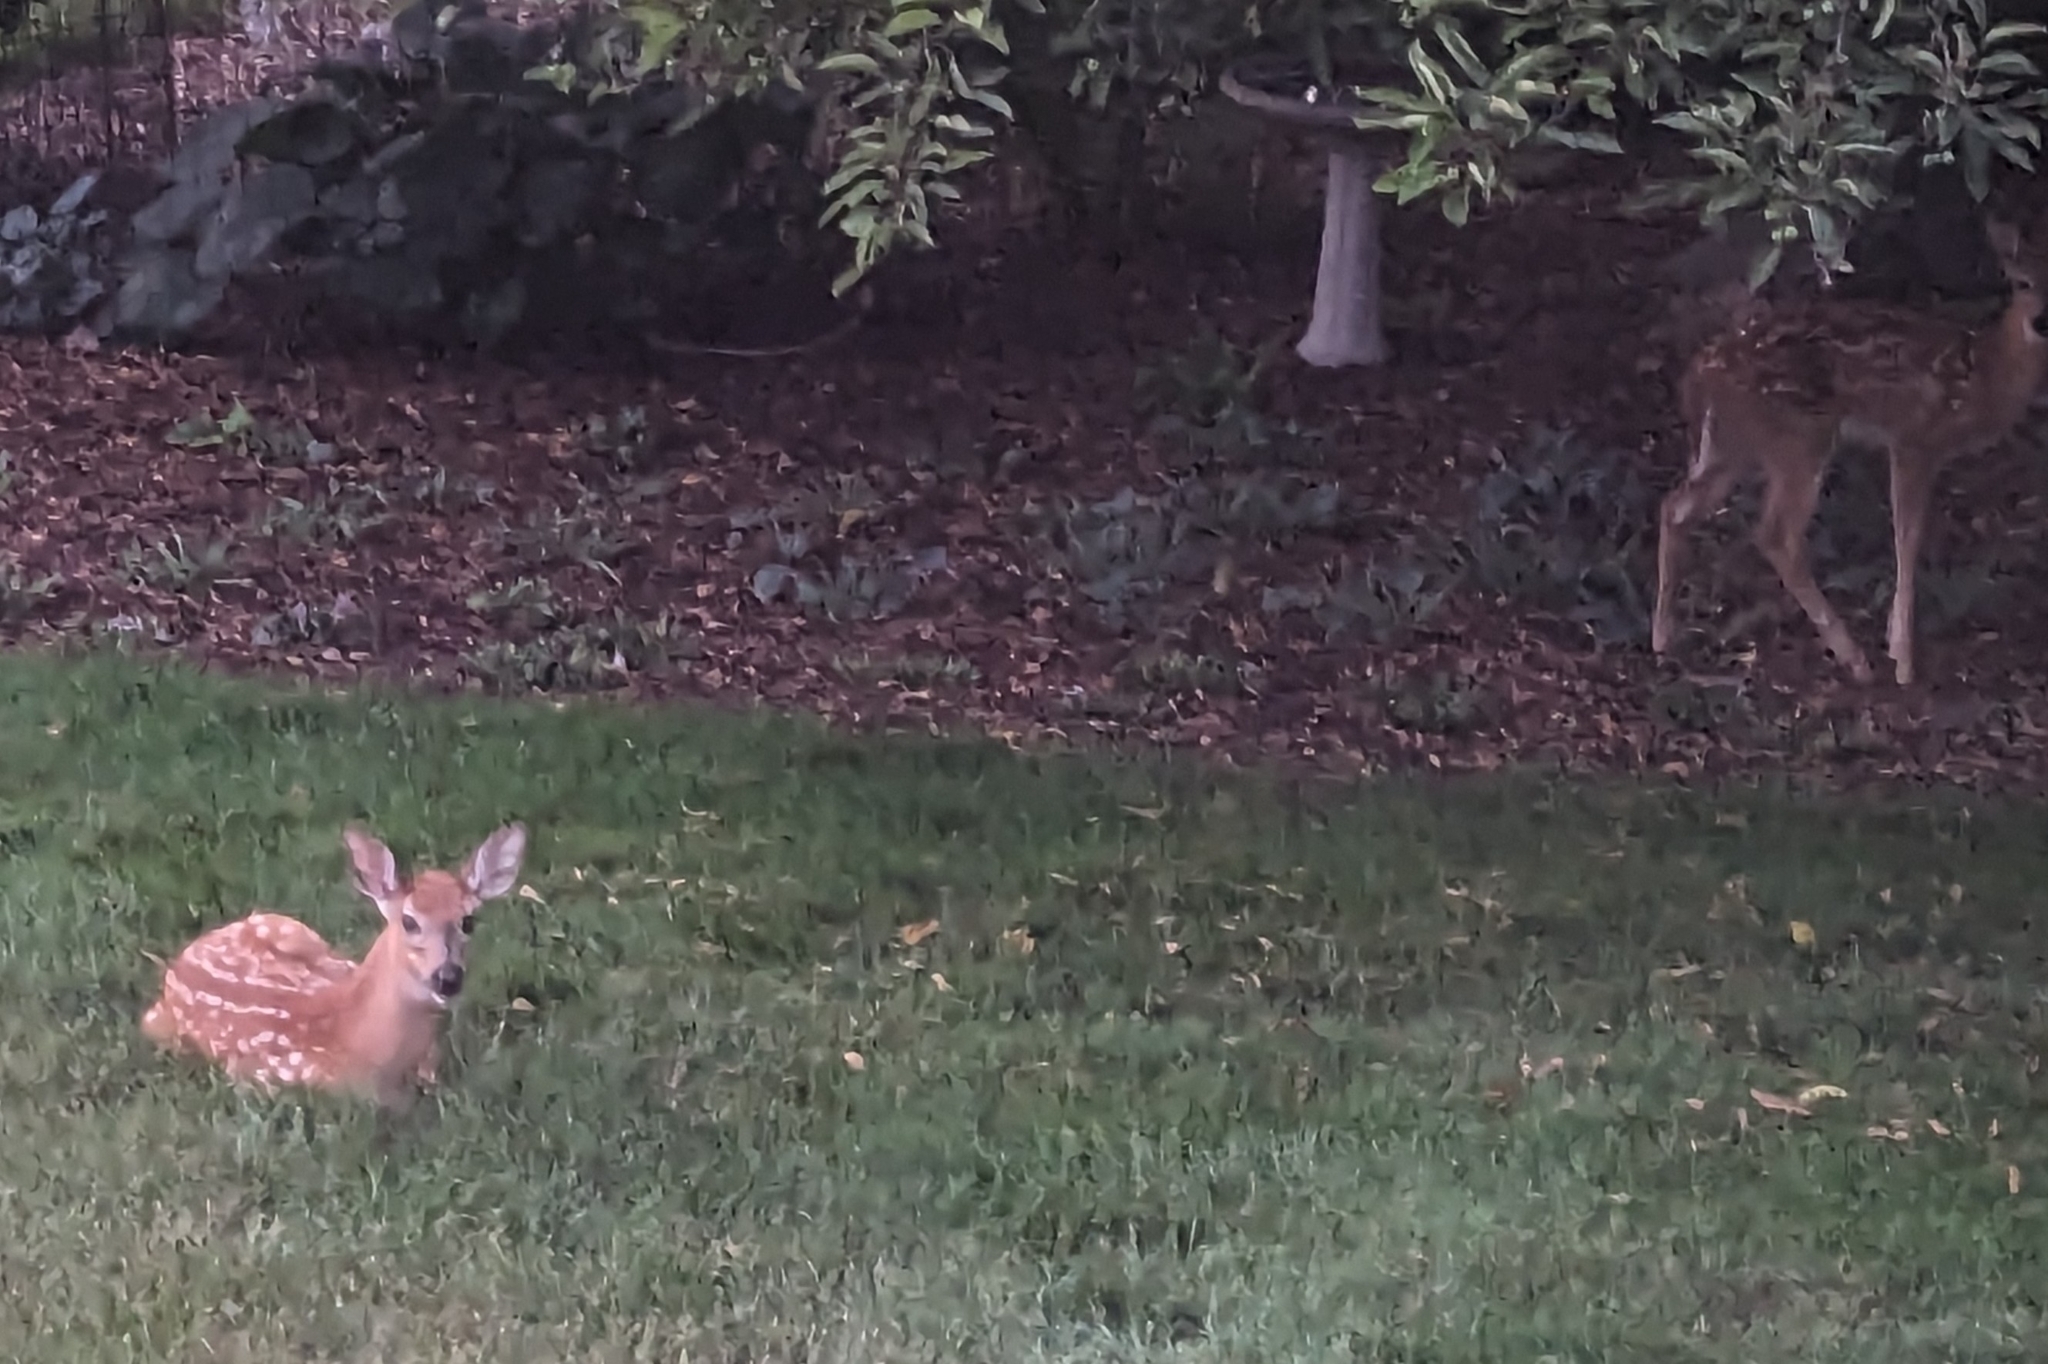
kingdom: Animalia
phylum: Chordata
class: Mammalia
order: Artiodactyla
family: Cervidae
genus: Odocoileus
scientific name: Odocoileus virginianus
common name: White-tailed deer
